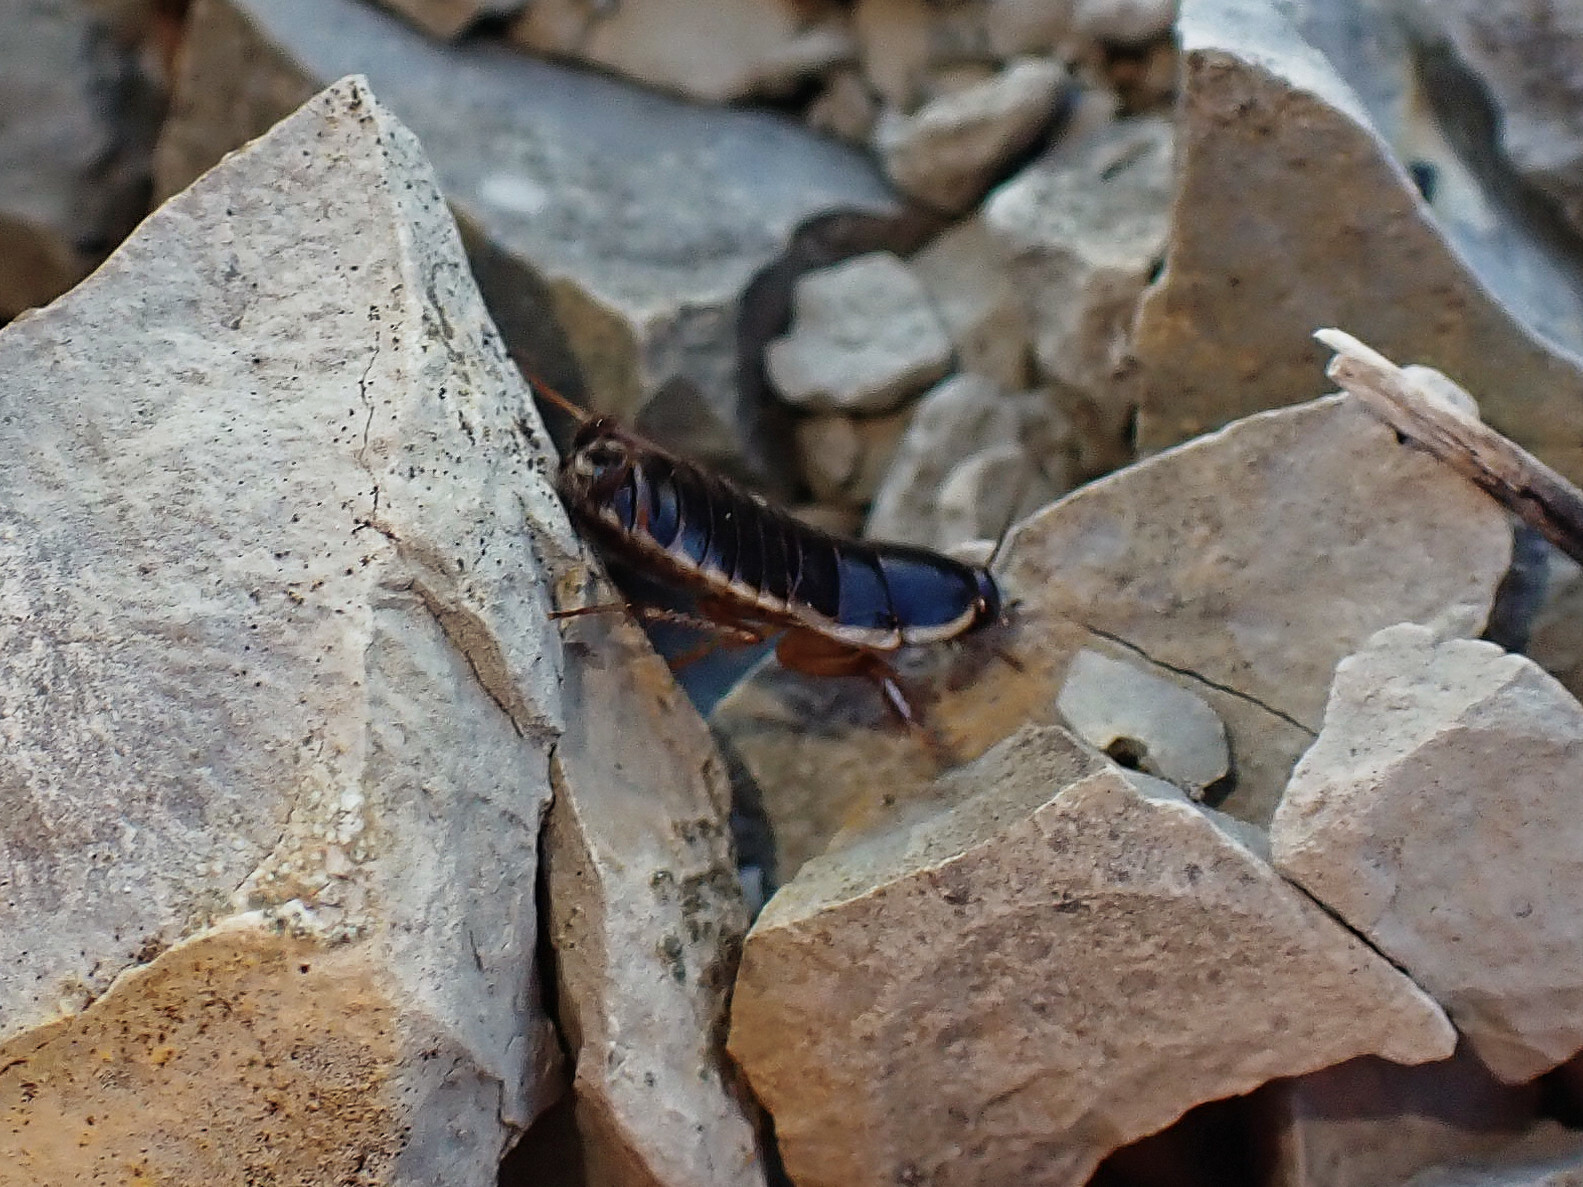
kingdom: Animalia
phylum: Arthropoda
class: Insecta
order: Blattodea
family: Ectobiidae
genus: Loboptera
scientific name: Loboptera decipiens
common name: Lobe-winged cockroach
